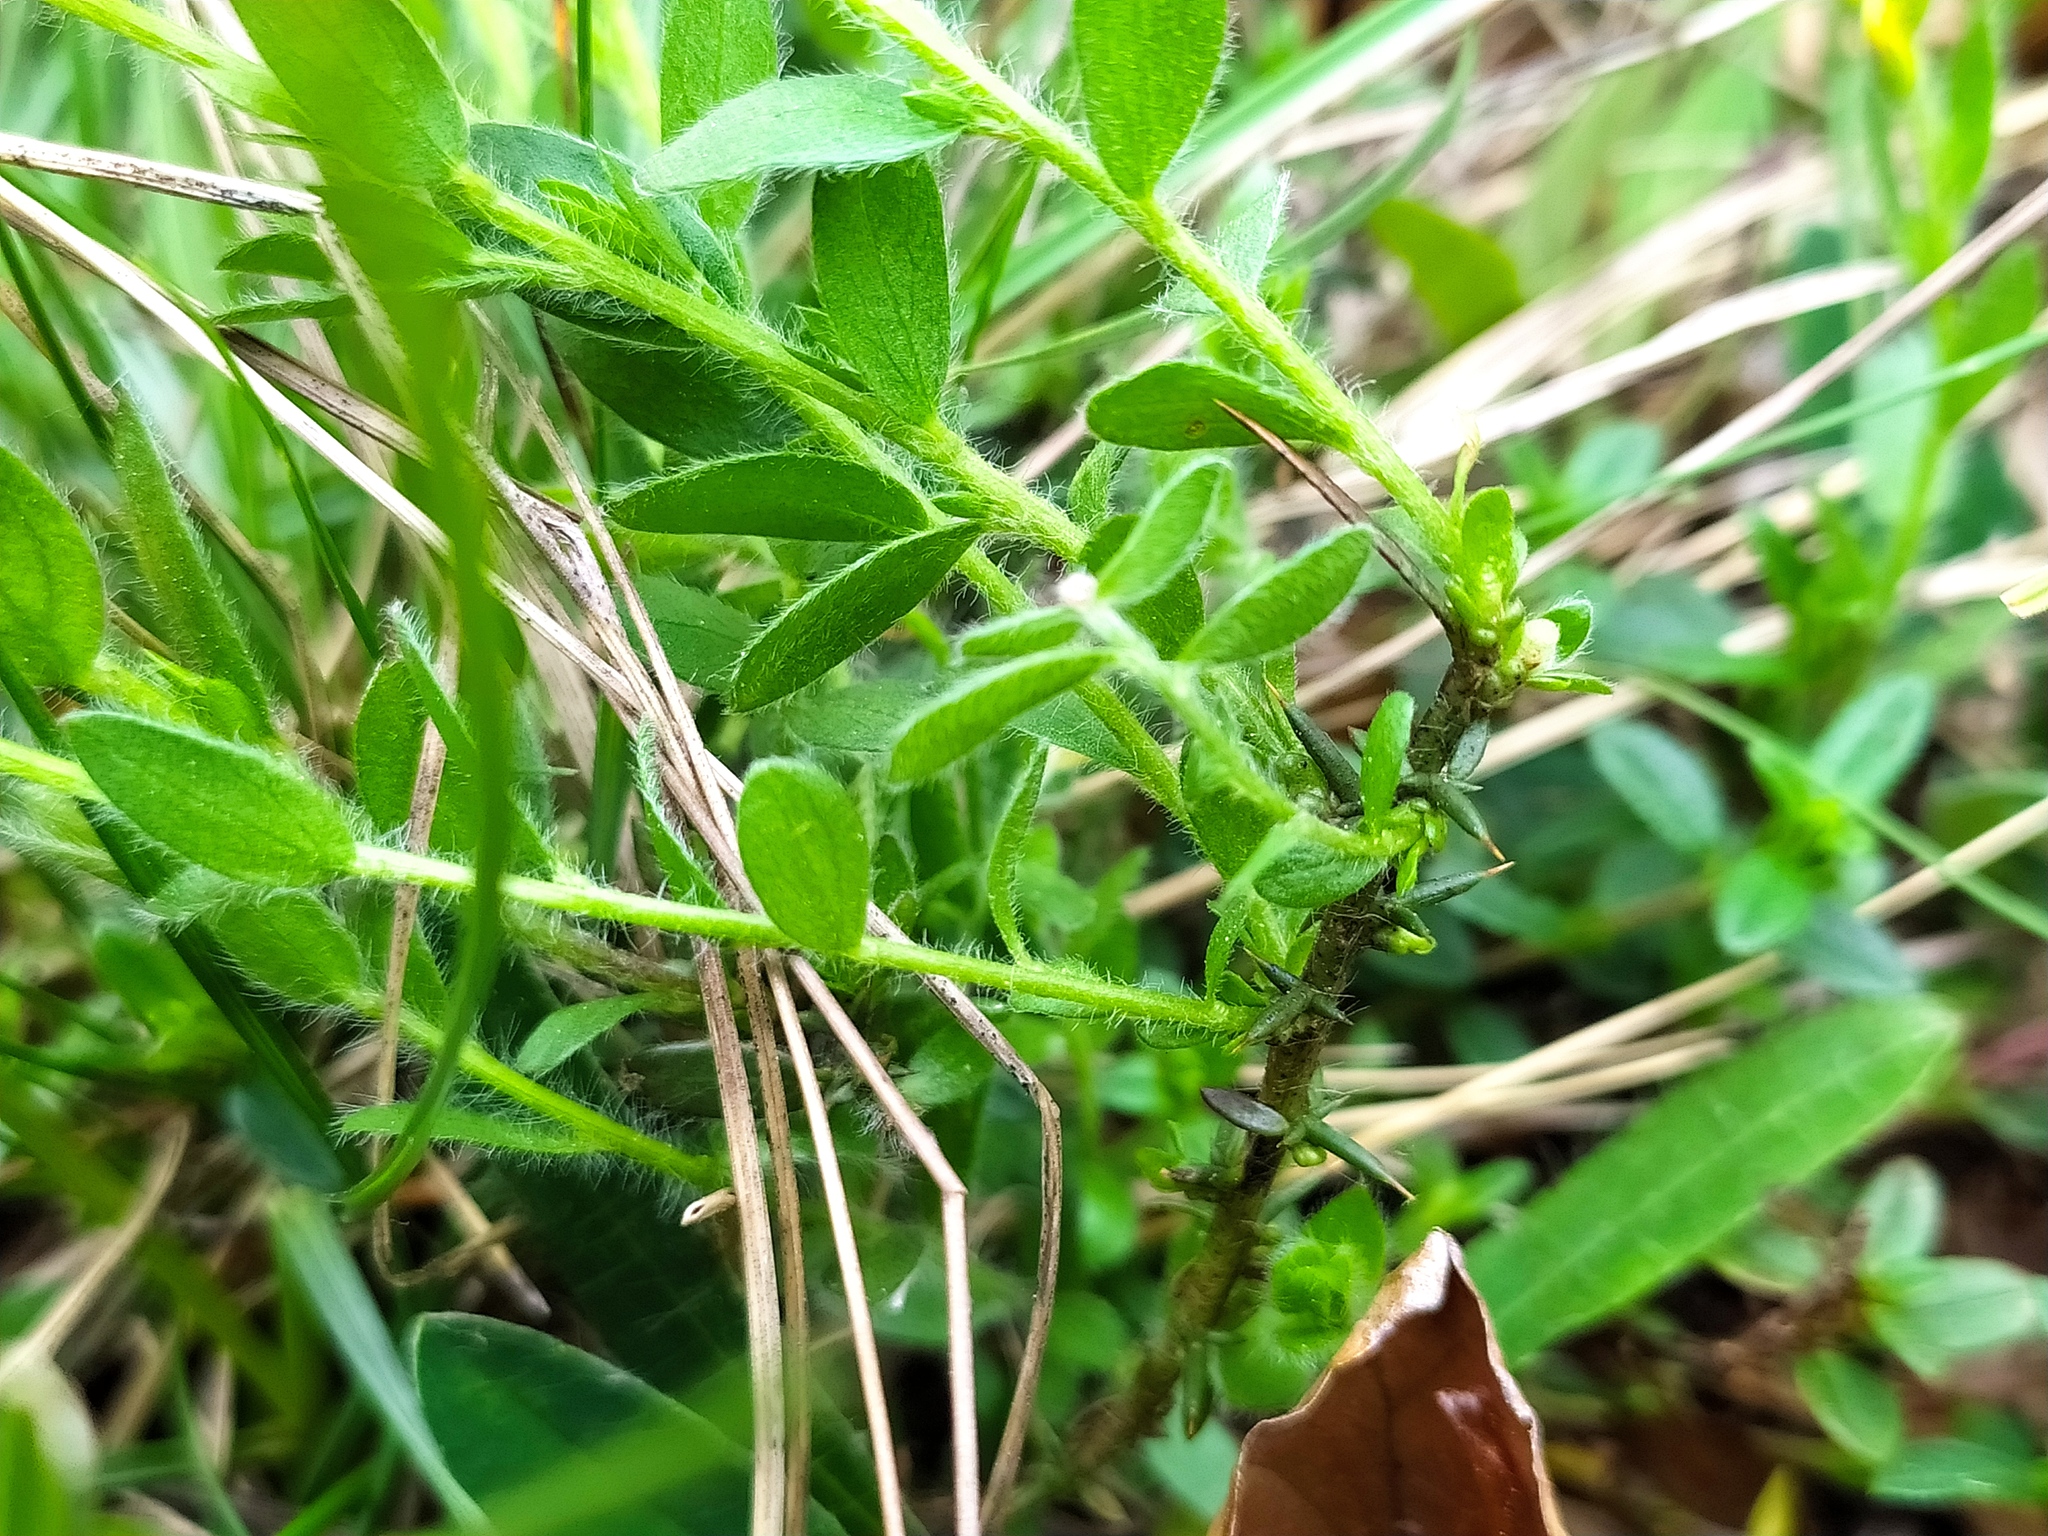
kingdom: Plantae
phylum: Tracheophyta
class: Magnoliopsida
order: Fabales
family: Fabaceae
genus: Genista
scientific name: Genista germanica
